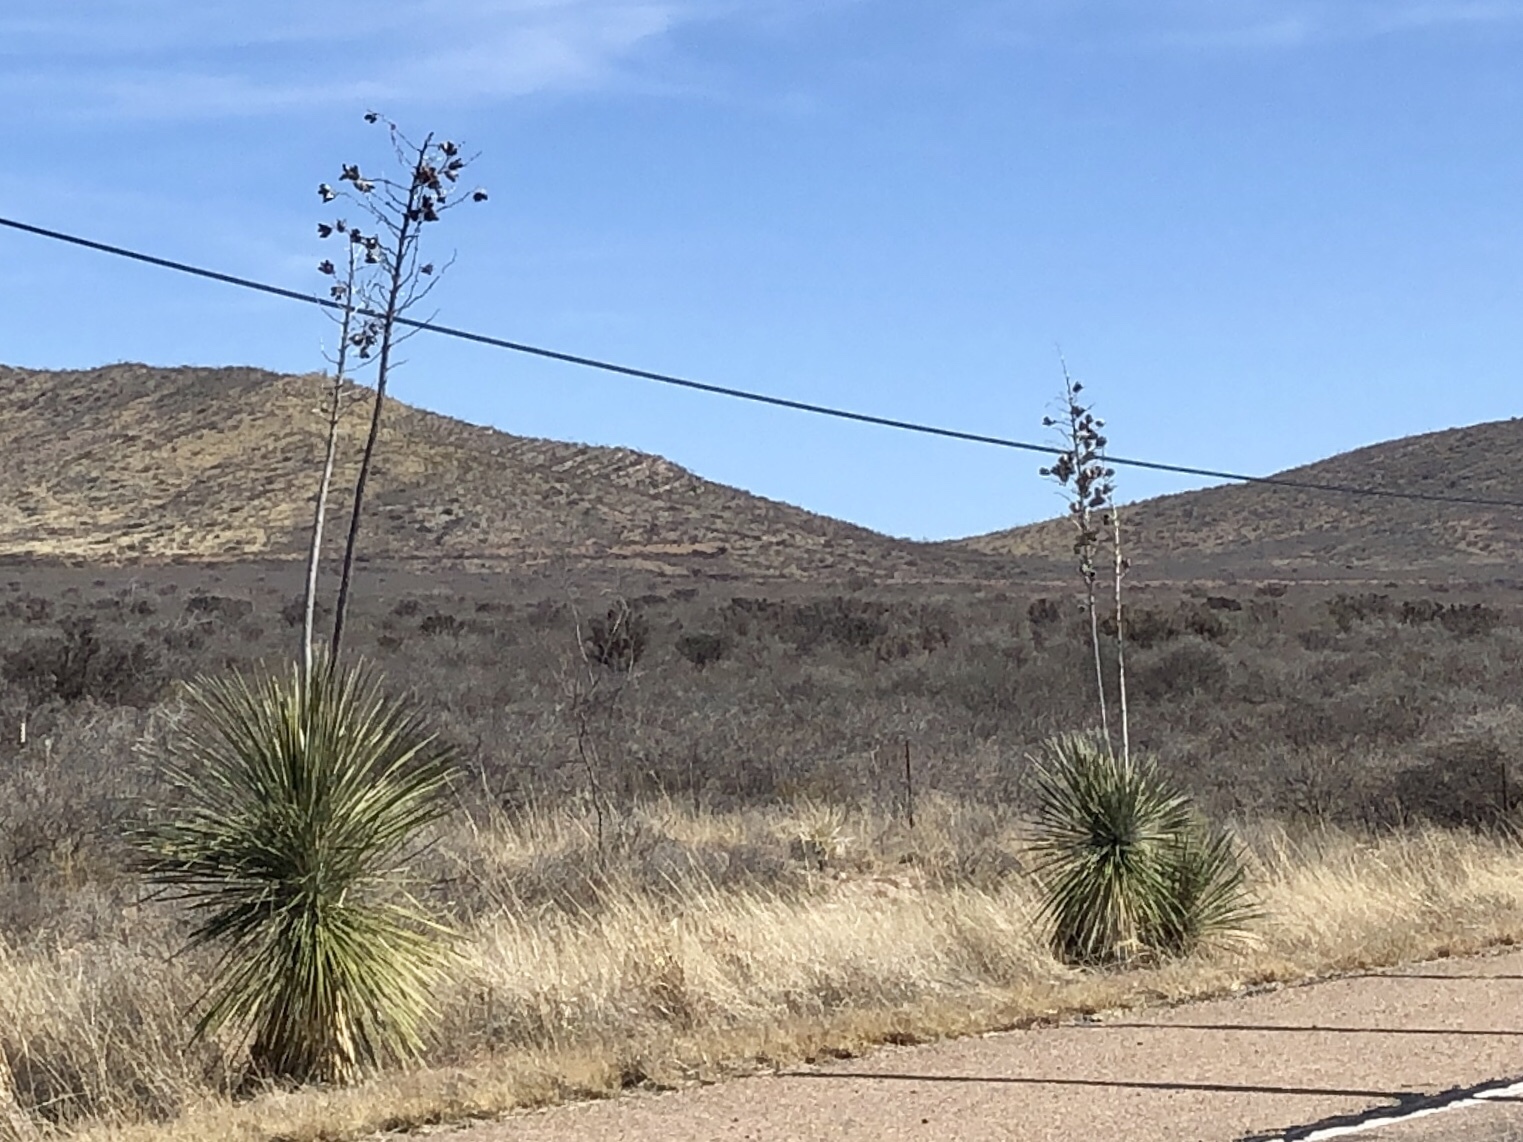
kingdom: Plantae
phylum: Tracheophyta
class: Liliopsida
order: Asparagales
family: Asparagaceae
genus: Yucca
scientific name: Yucca elata
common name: Palmella
